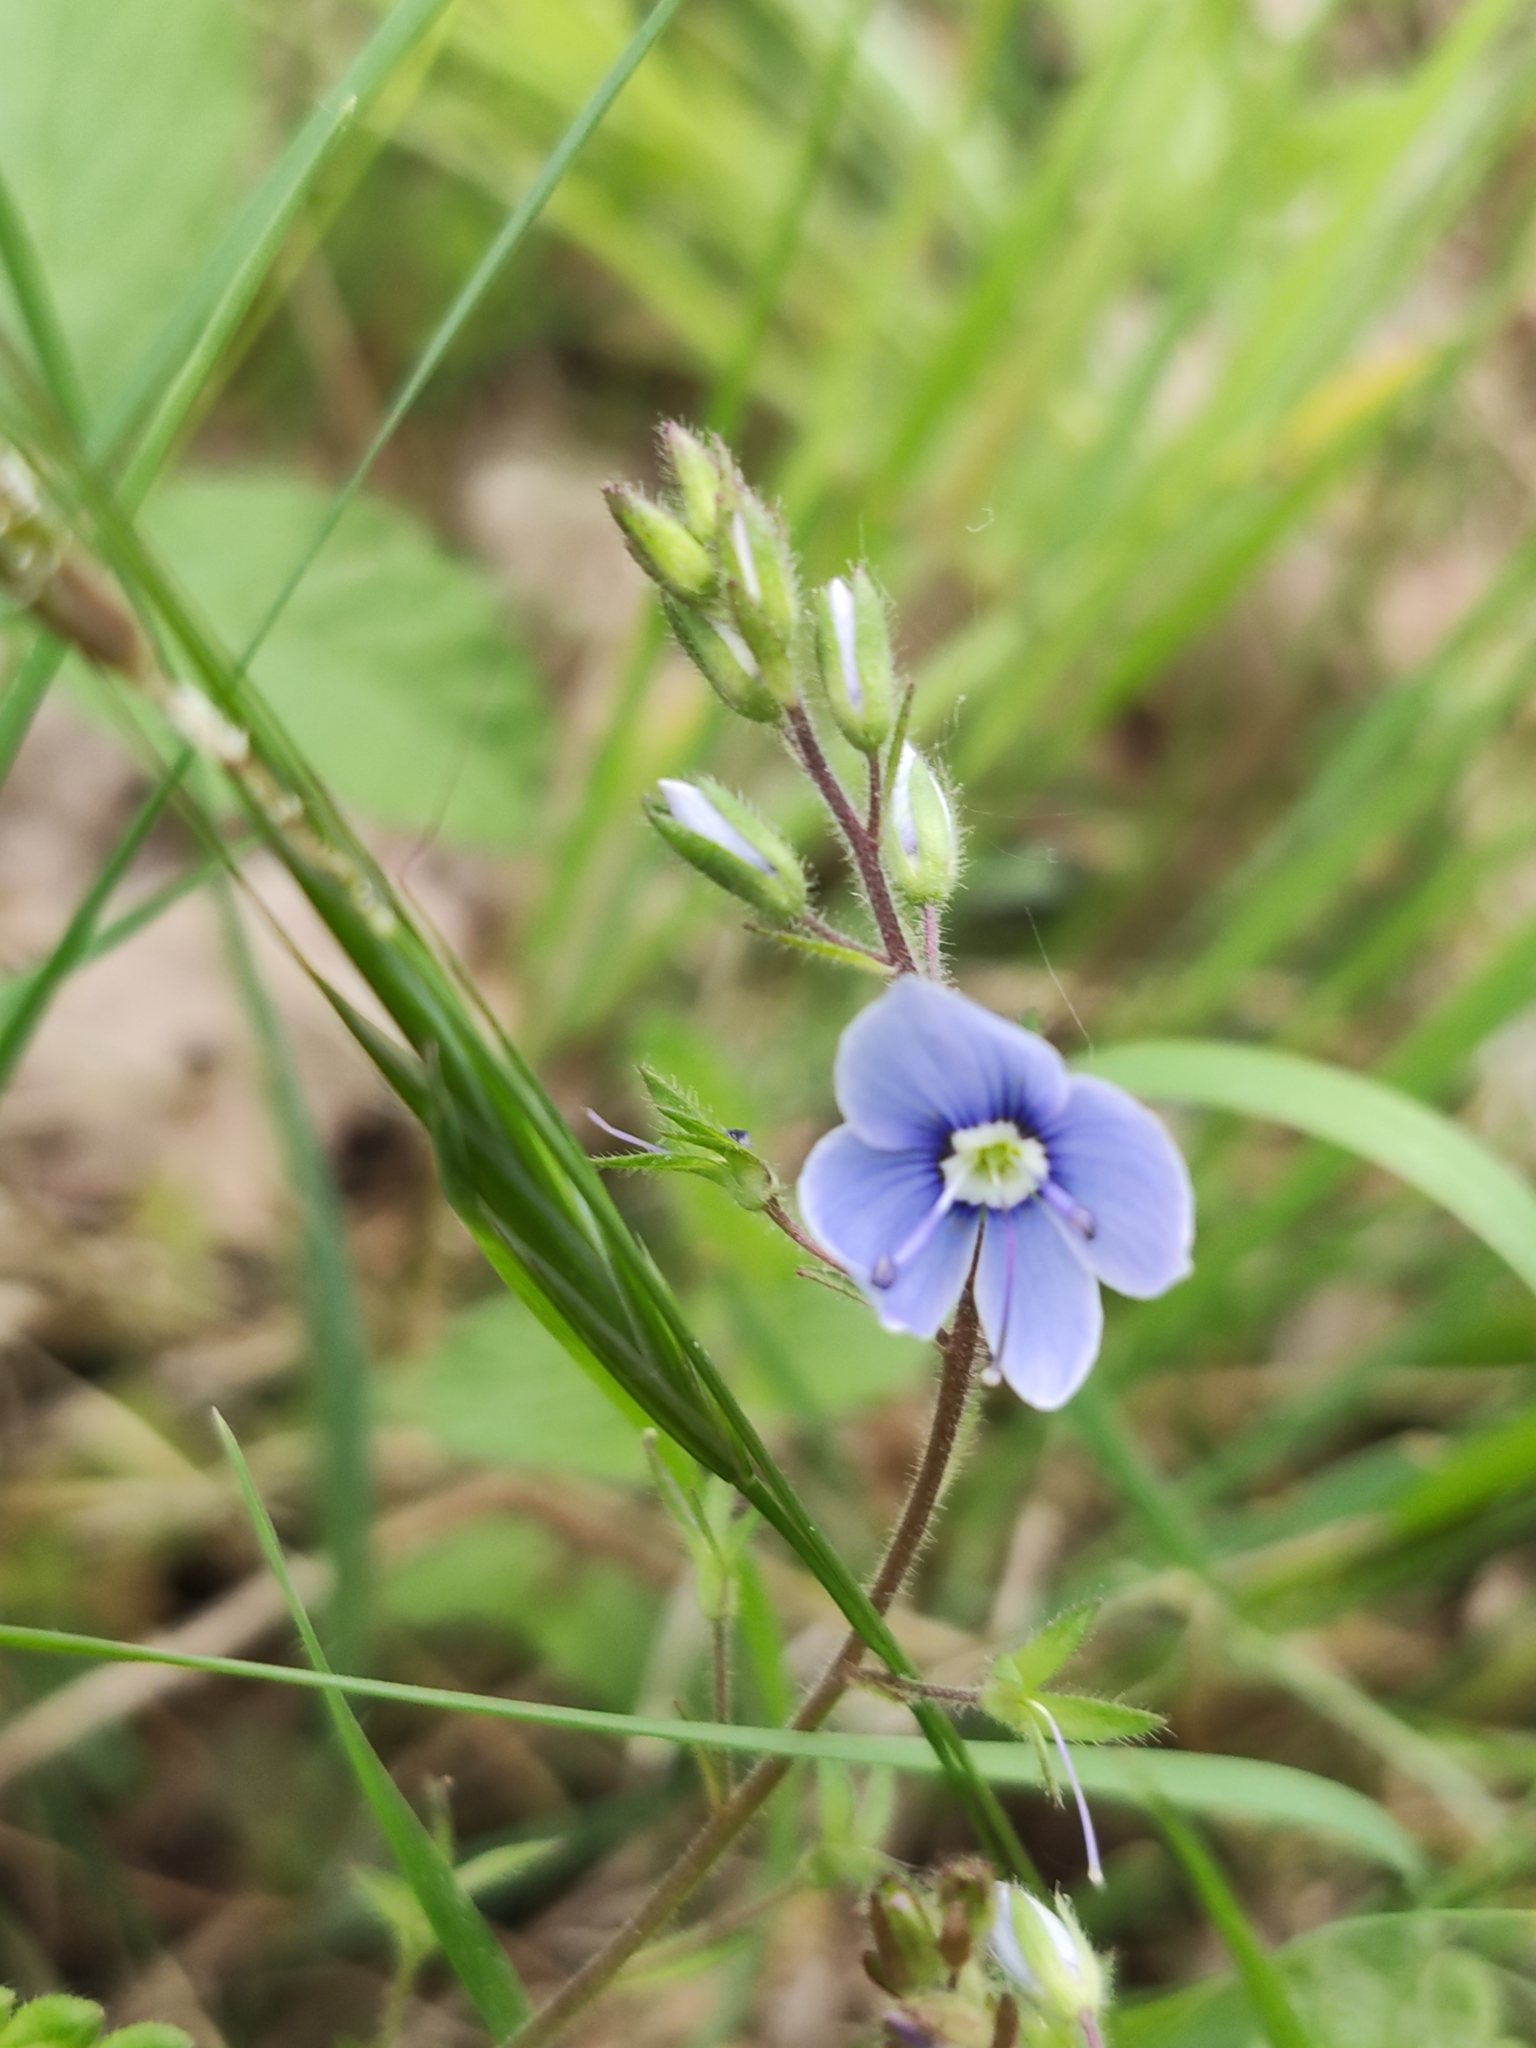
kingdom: Plantae
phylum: Tracheophyta
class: Magnoliopsida
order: Lamiales
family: Plantaginaceae
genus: Veronica
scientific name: Veronica chamaedrys
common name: Germander speedwell
